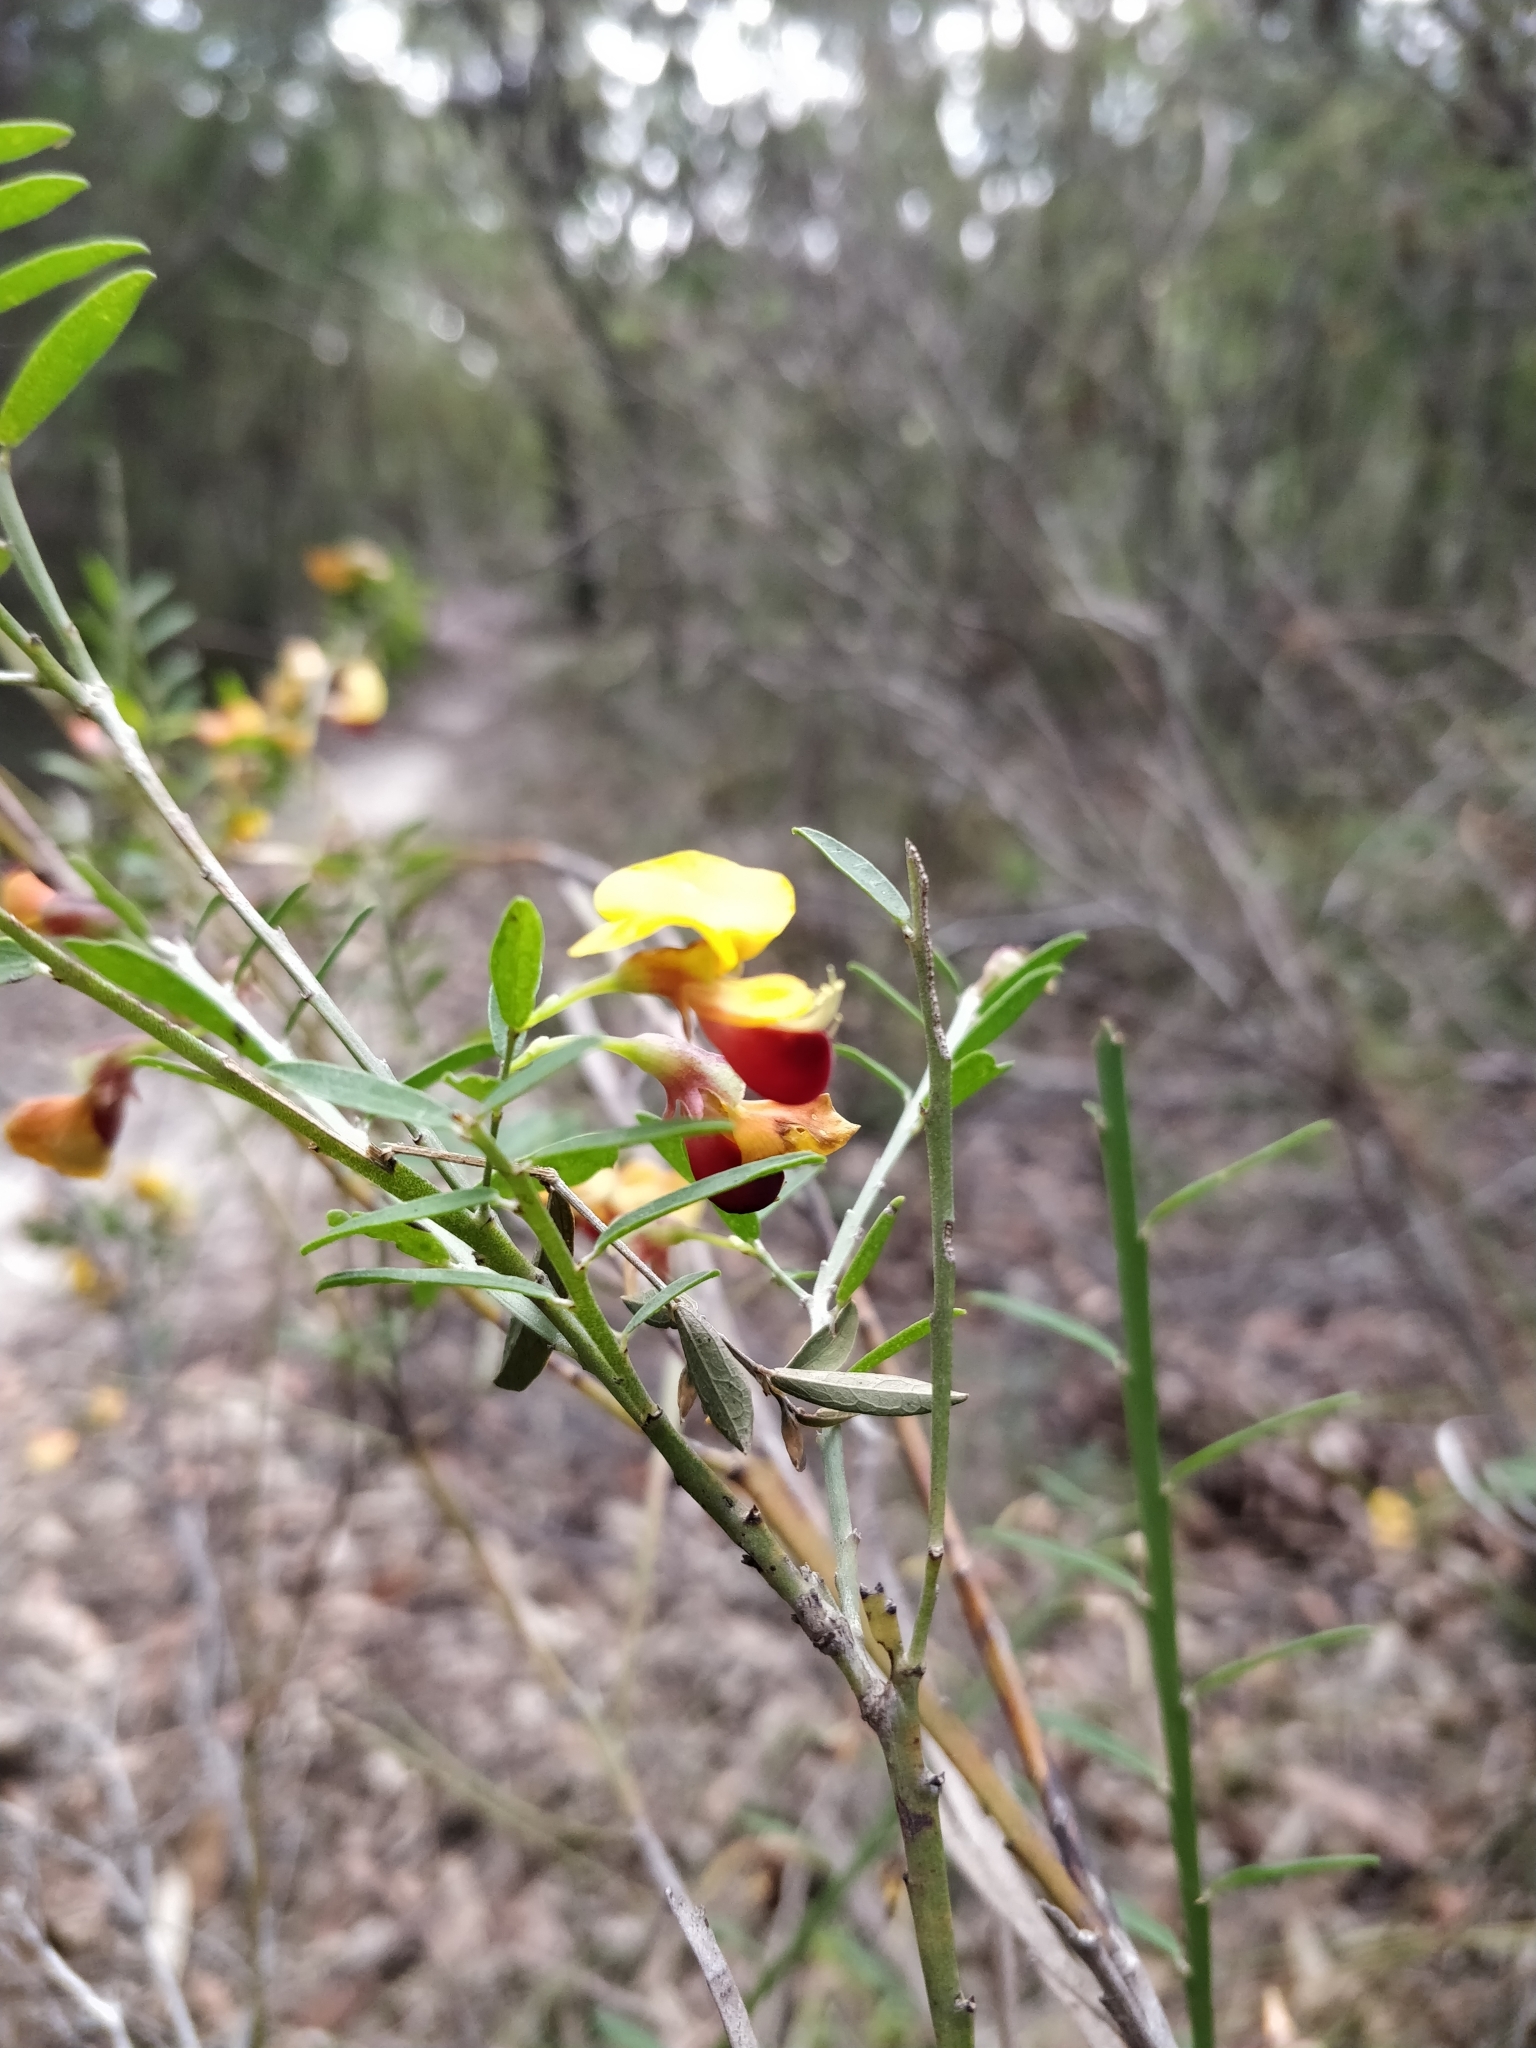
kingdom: Plantae
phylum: Tracheophyta
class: Magnoliopsida
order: Fabales
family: Fabaceae
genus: Bossiaea
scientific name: Bossiaea heterophylla
